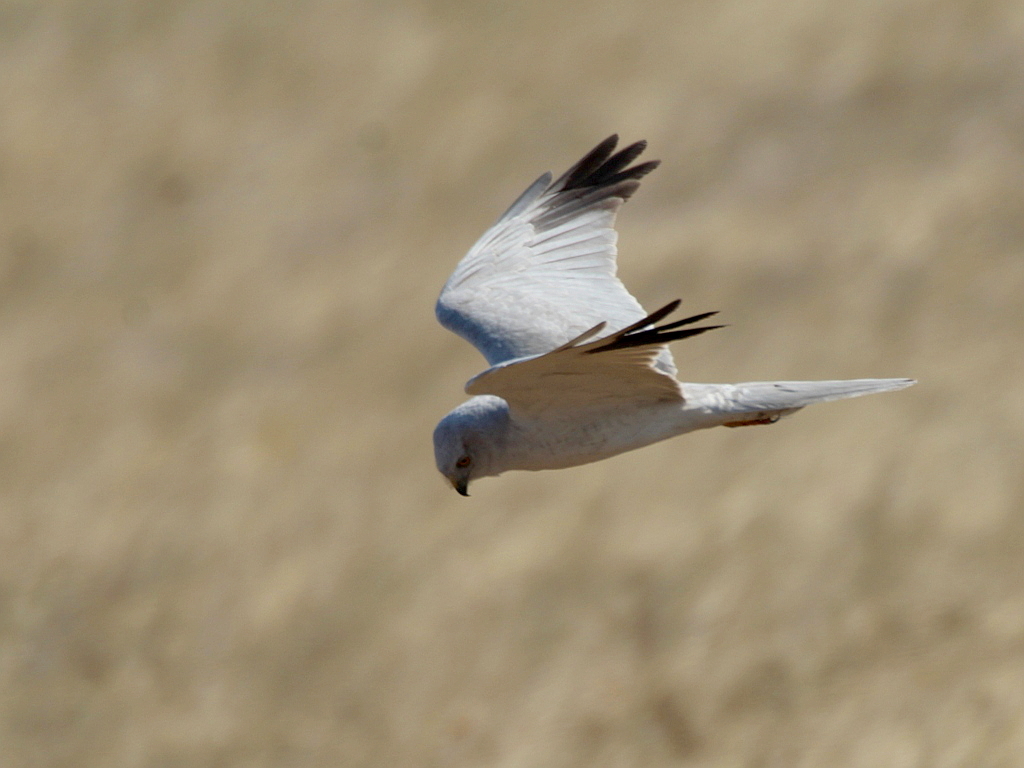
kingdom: Animalia
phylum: Chordata
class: Aves
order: Accipitriformes
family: Accipitridae
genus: Circus
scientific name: Circus macrourus
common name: Pallid harrier
